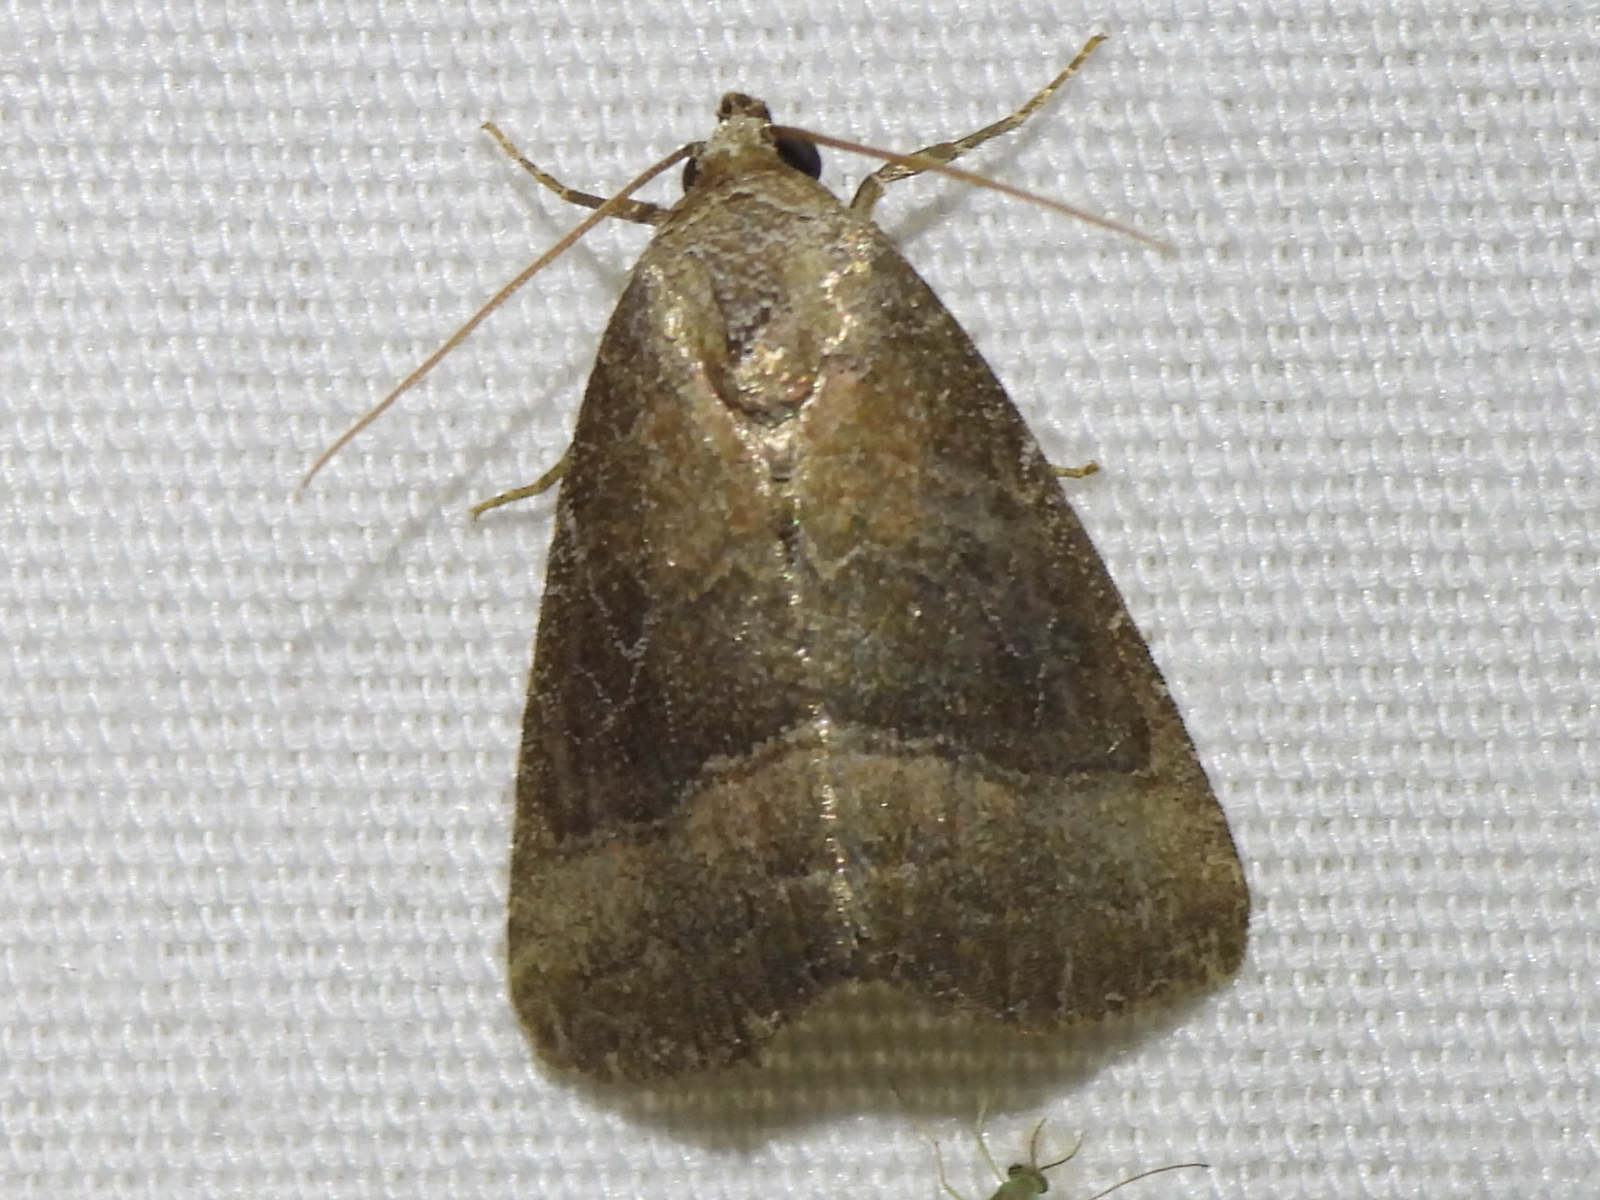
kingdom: Animalia
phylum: Arthropoda
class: Insecta
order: Lepidoptera
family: Noctuidae
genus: Ogdoconta
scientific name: Ogdoconta cinereola
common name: Common pinkband
